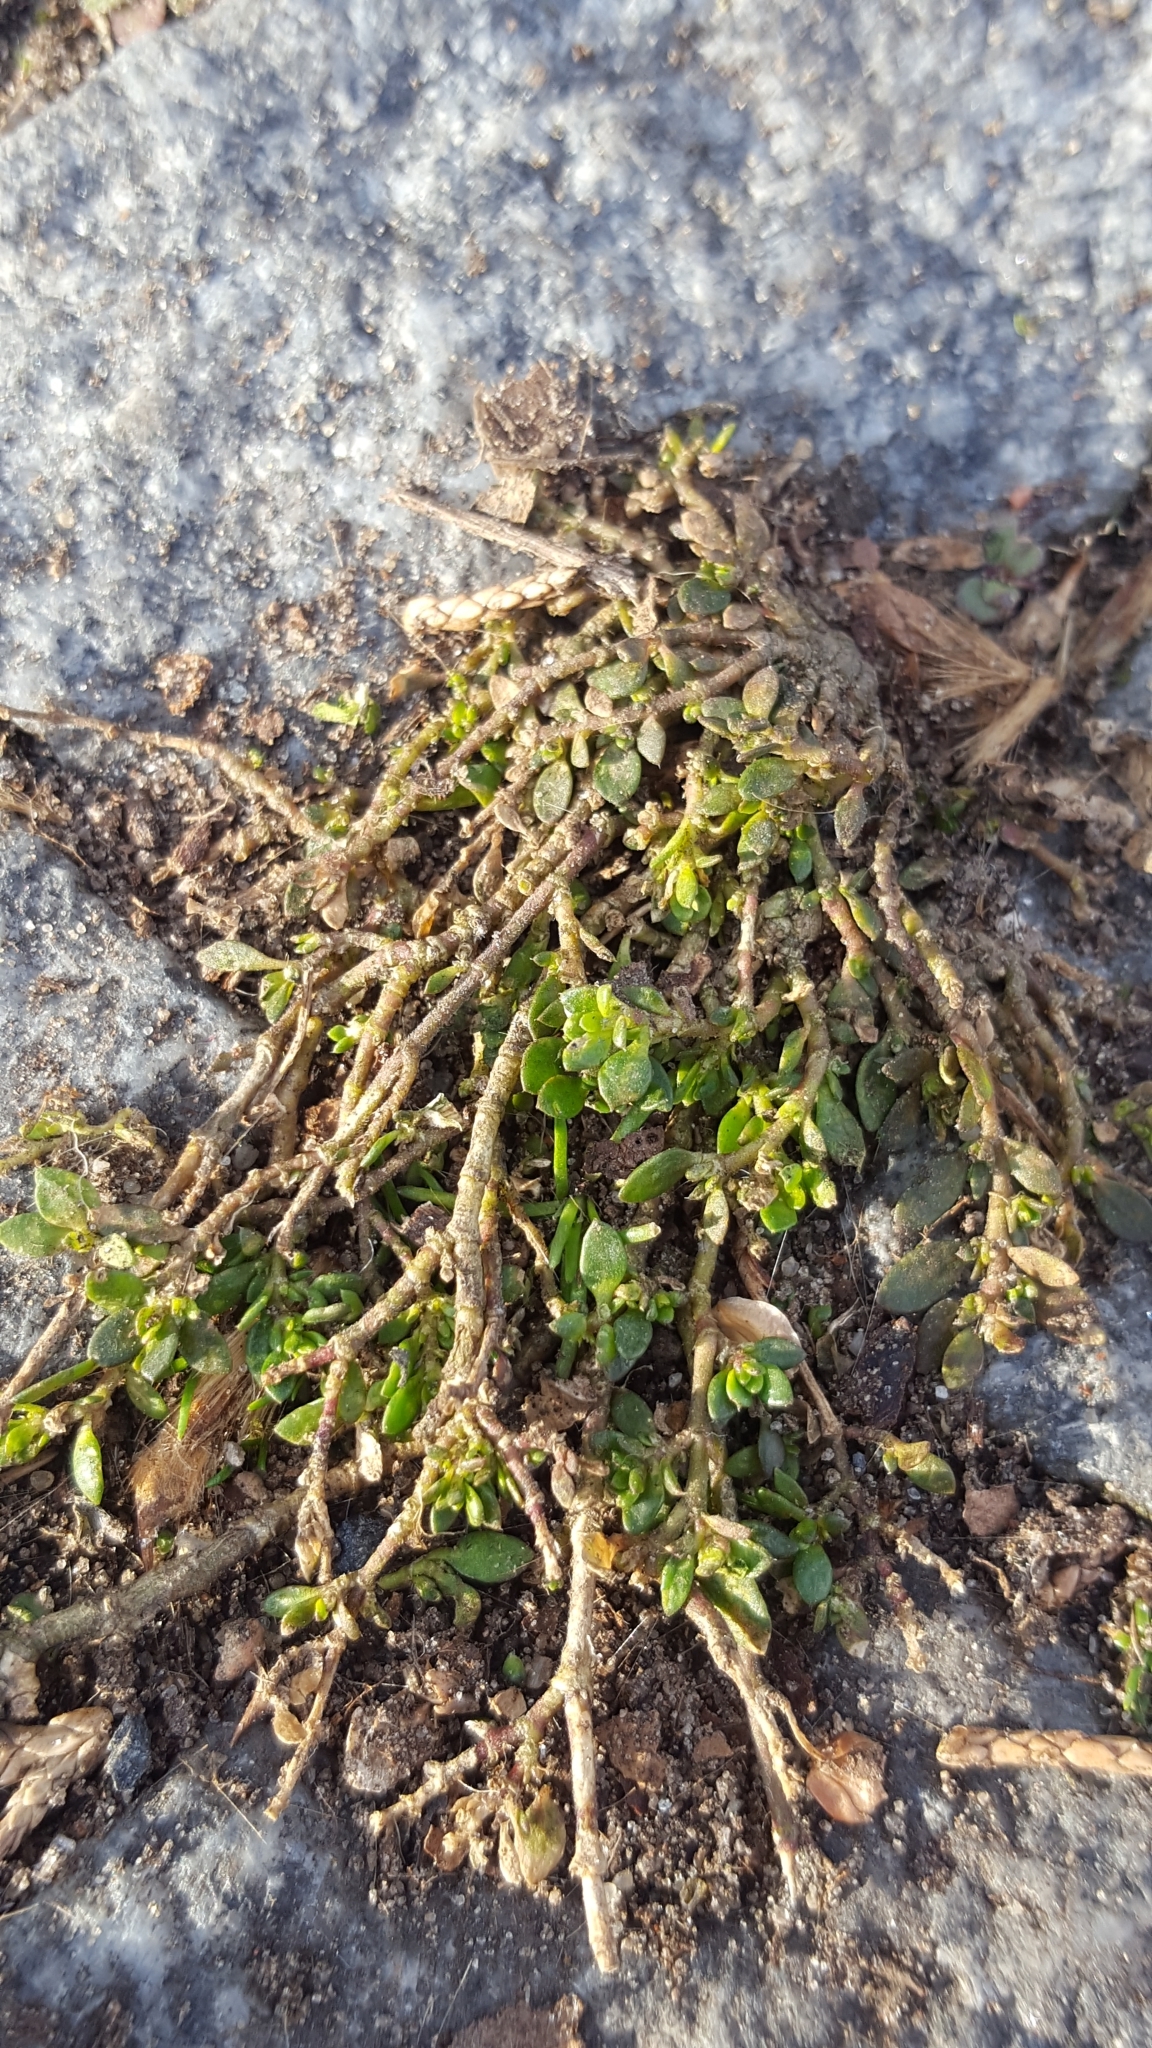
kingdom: Plantae
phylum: Tracheophyta
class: Magnoliopsida
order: Caryophyllales
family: Caryophyllaceae
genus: Herniaria
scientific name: Herniaria glabra
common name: Smooth rupturewort
